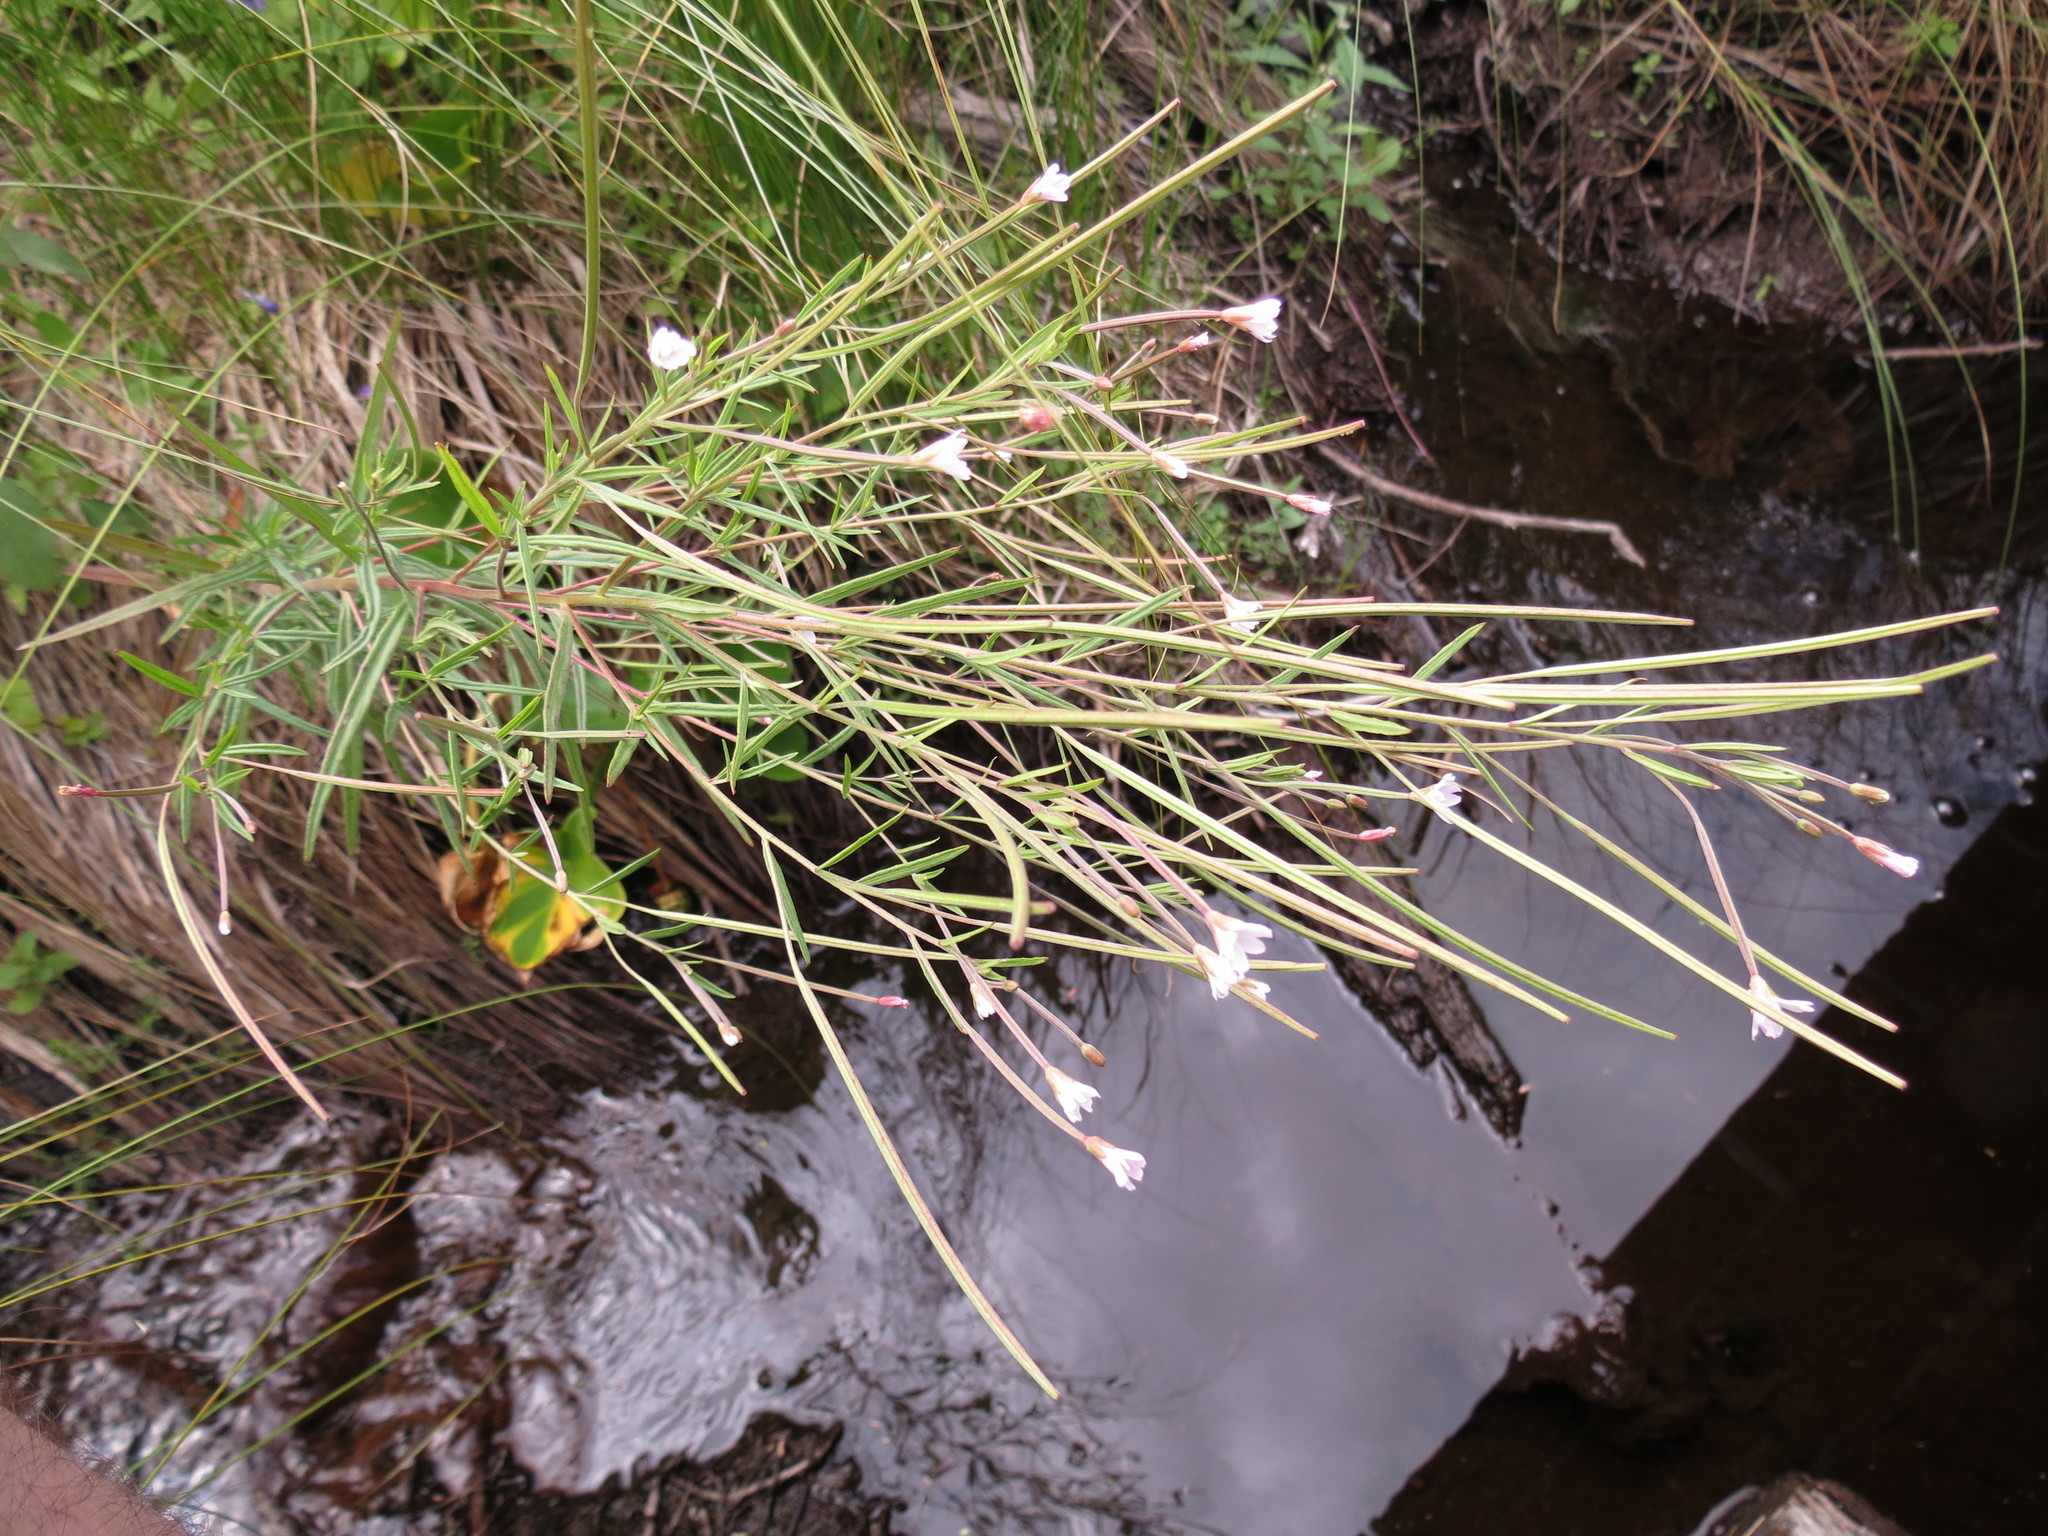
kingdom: Plantae
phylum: Tracheophyta
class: Magnoliopsida
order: Myrtales
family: Onagraceae
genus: Epilobium
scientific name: Epilobium leptophyllum
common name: Bog willowherb
